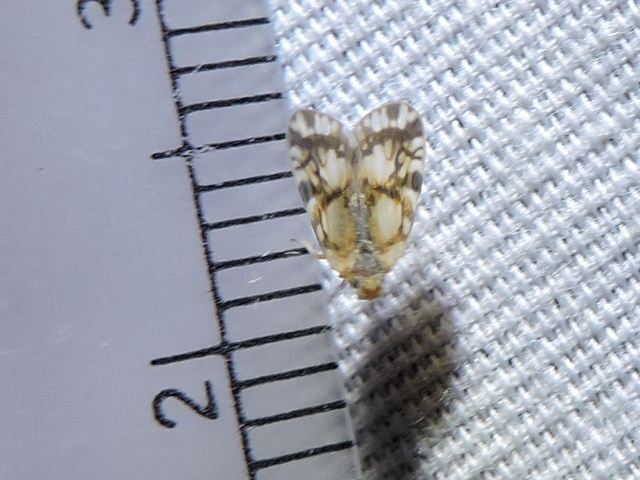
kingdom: Animalia
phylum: Arthropoda
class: Insecta
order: Hemiptera
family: Cixiidae
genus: Bothriocera
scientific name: Bothriocera knulli
